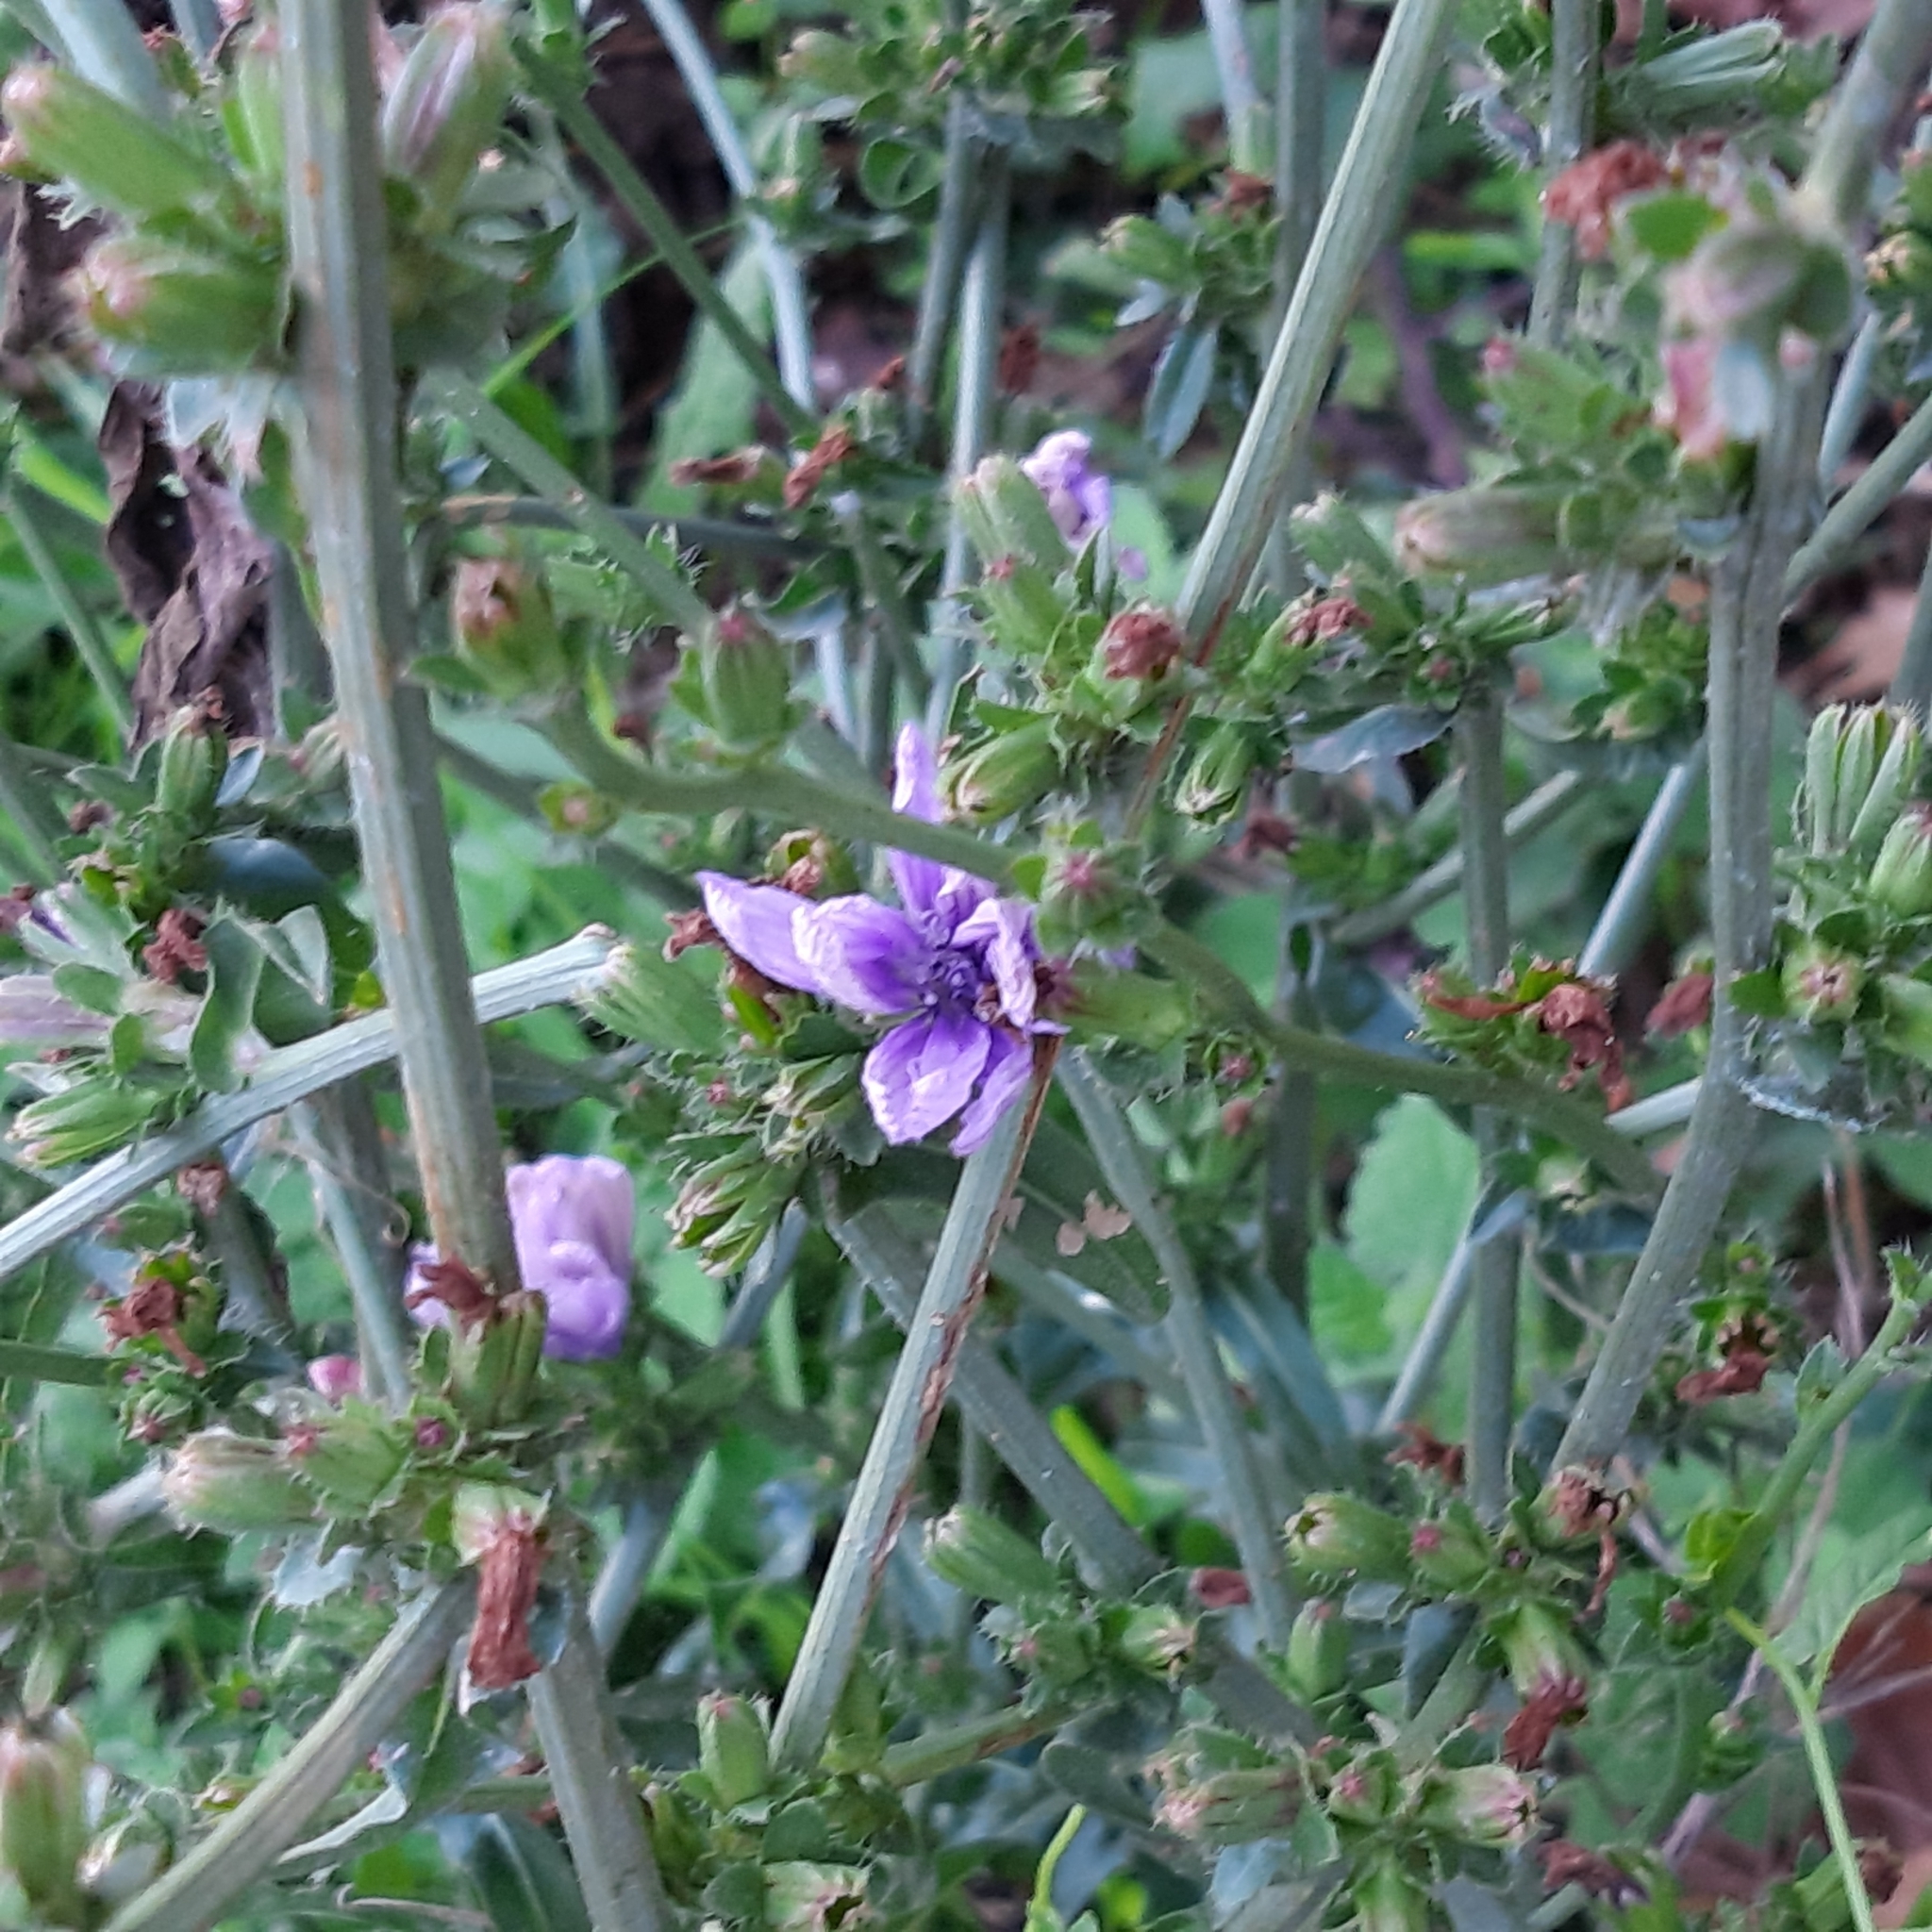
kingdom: Plantae
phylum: Tracheophyta
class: Magnoliopsida
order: Asterales
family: Asteraceae
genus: Cichorium
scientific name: Cichorium intybus
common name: Chicory
